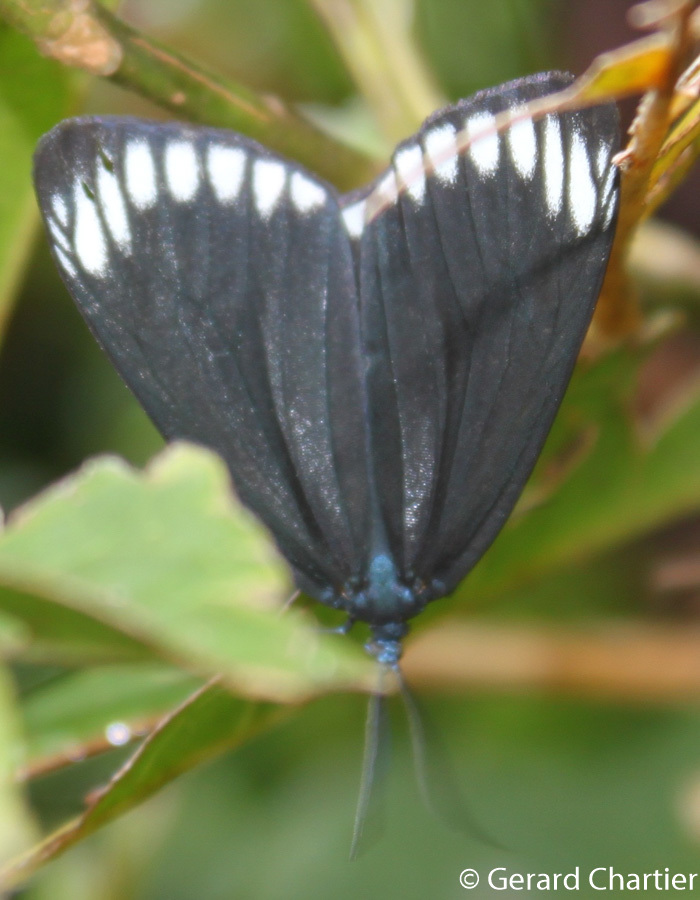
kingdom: Animalia
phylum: Arthropoda
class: Insecta
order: Lepidoptera
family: Zygaenidae
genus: Cyclosia
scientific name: Cyclosia panthona
